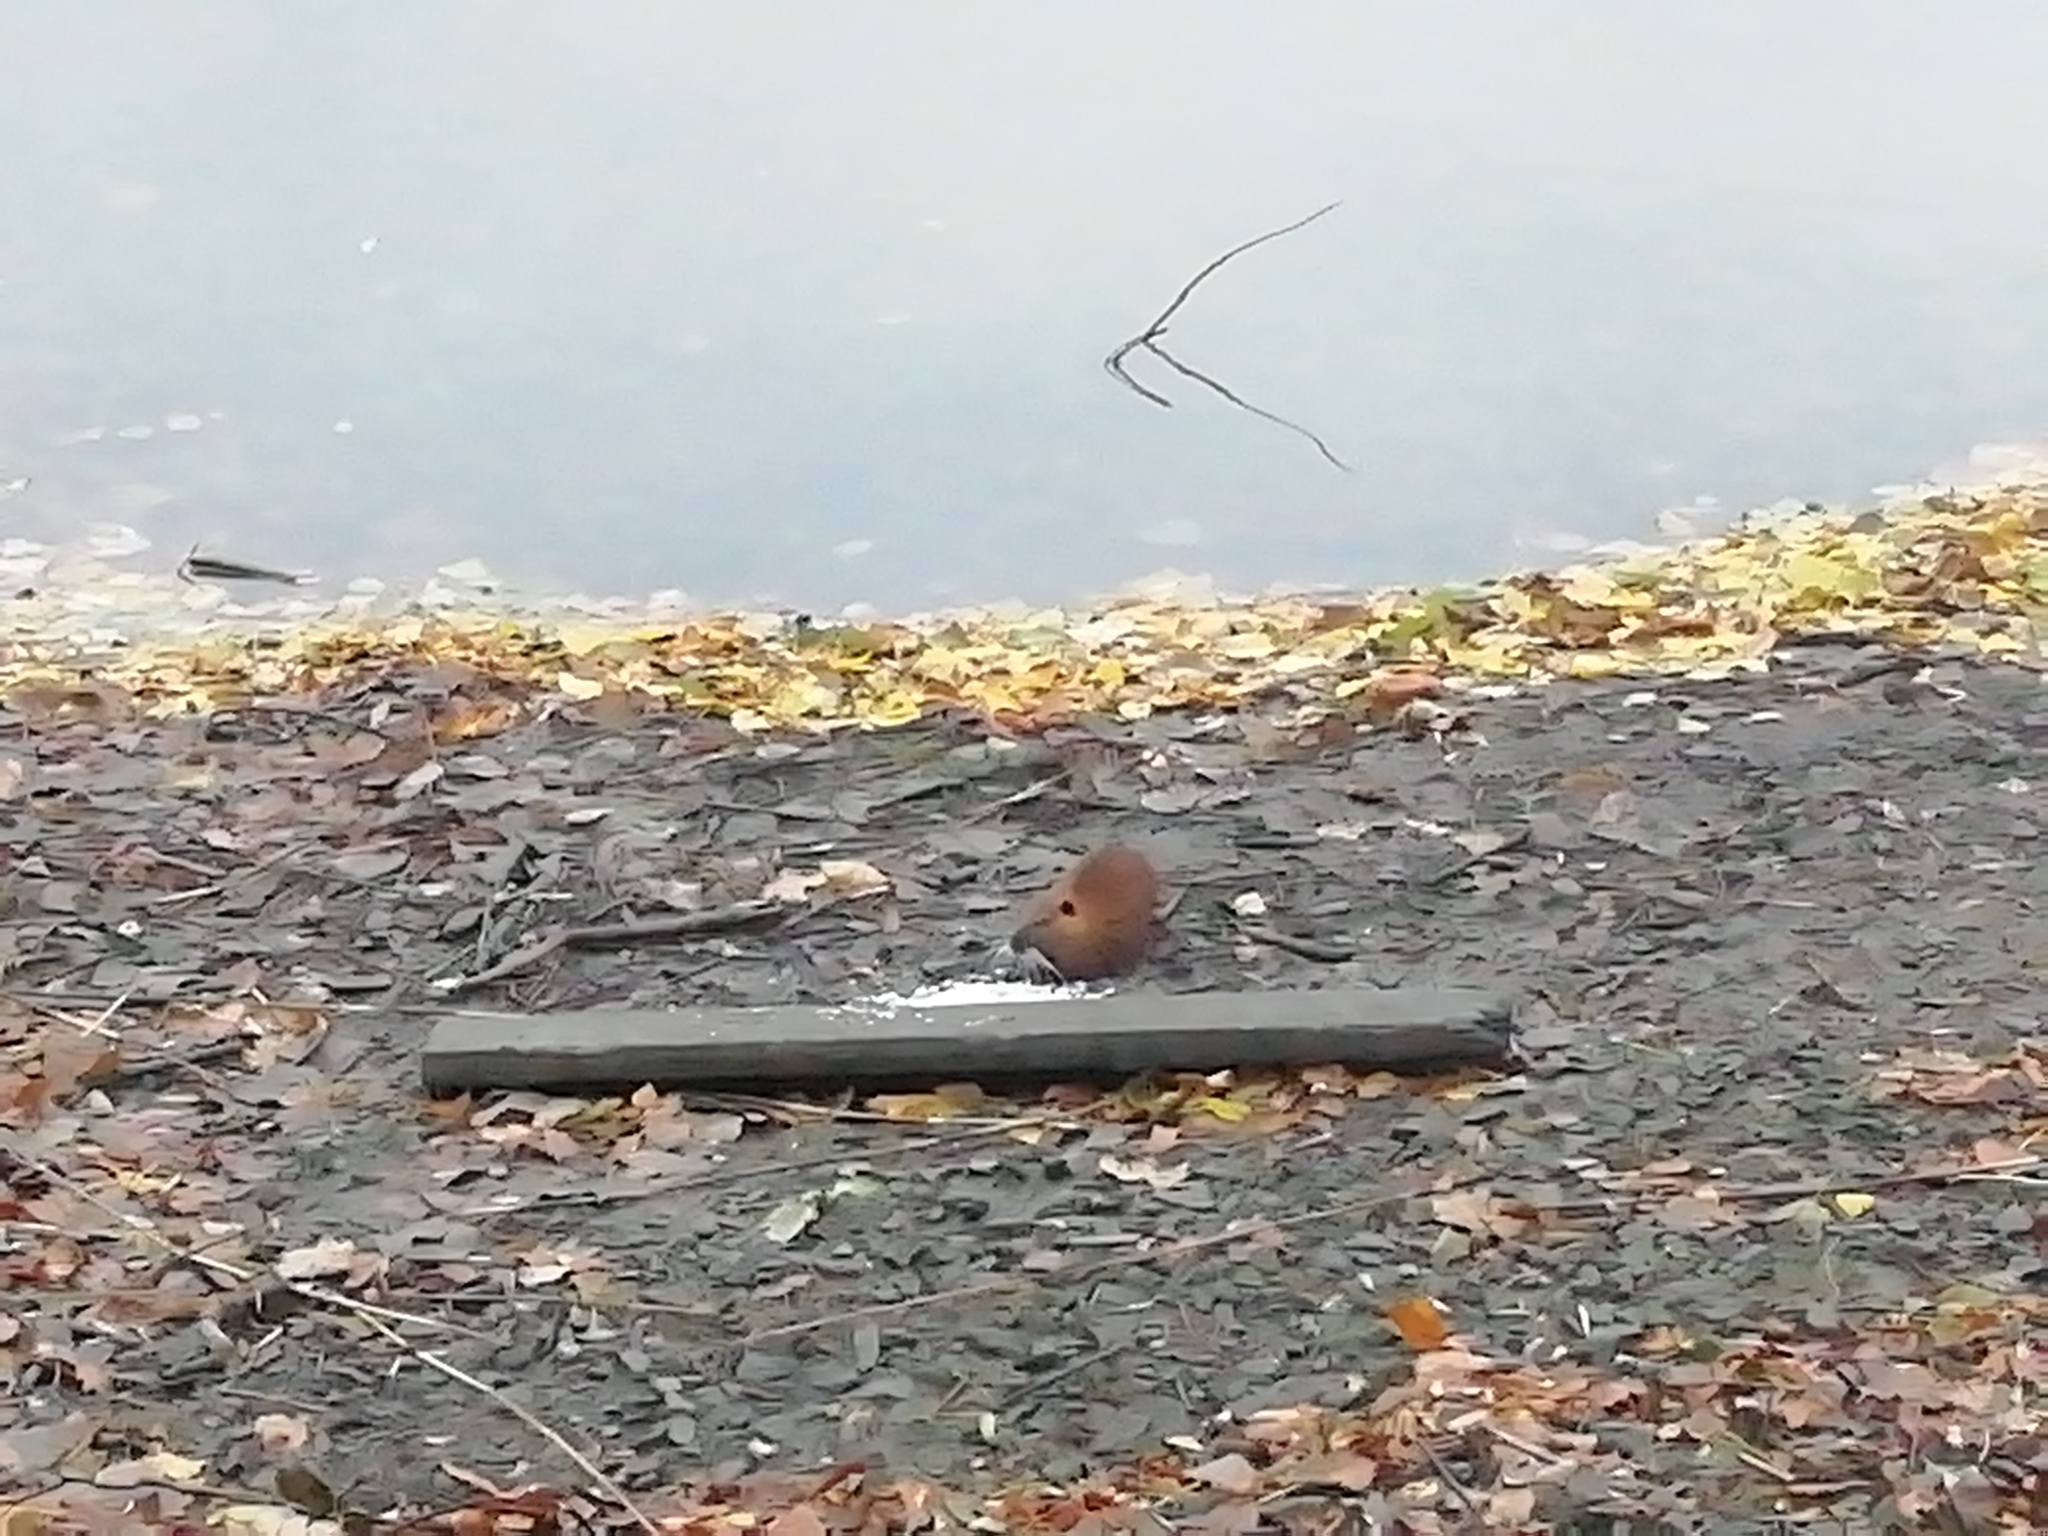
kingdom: Animalia
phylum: Chordata
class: Mammalia
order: Rodentia
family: Myocastoridae
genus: Myocastor
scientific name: Myocastor coypus
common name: Coypu
